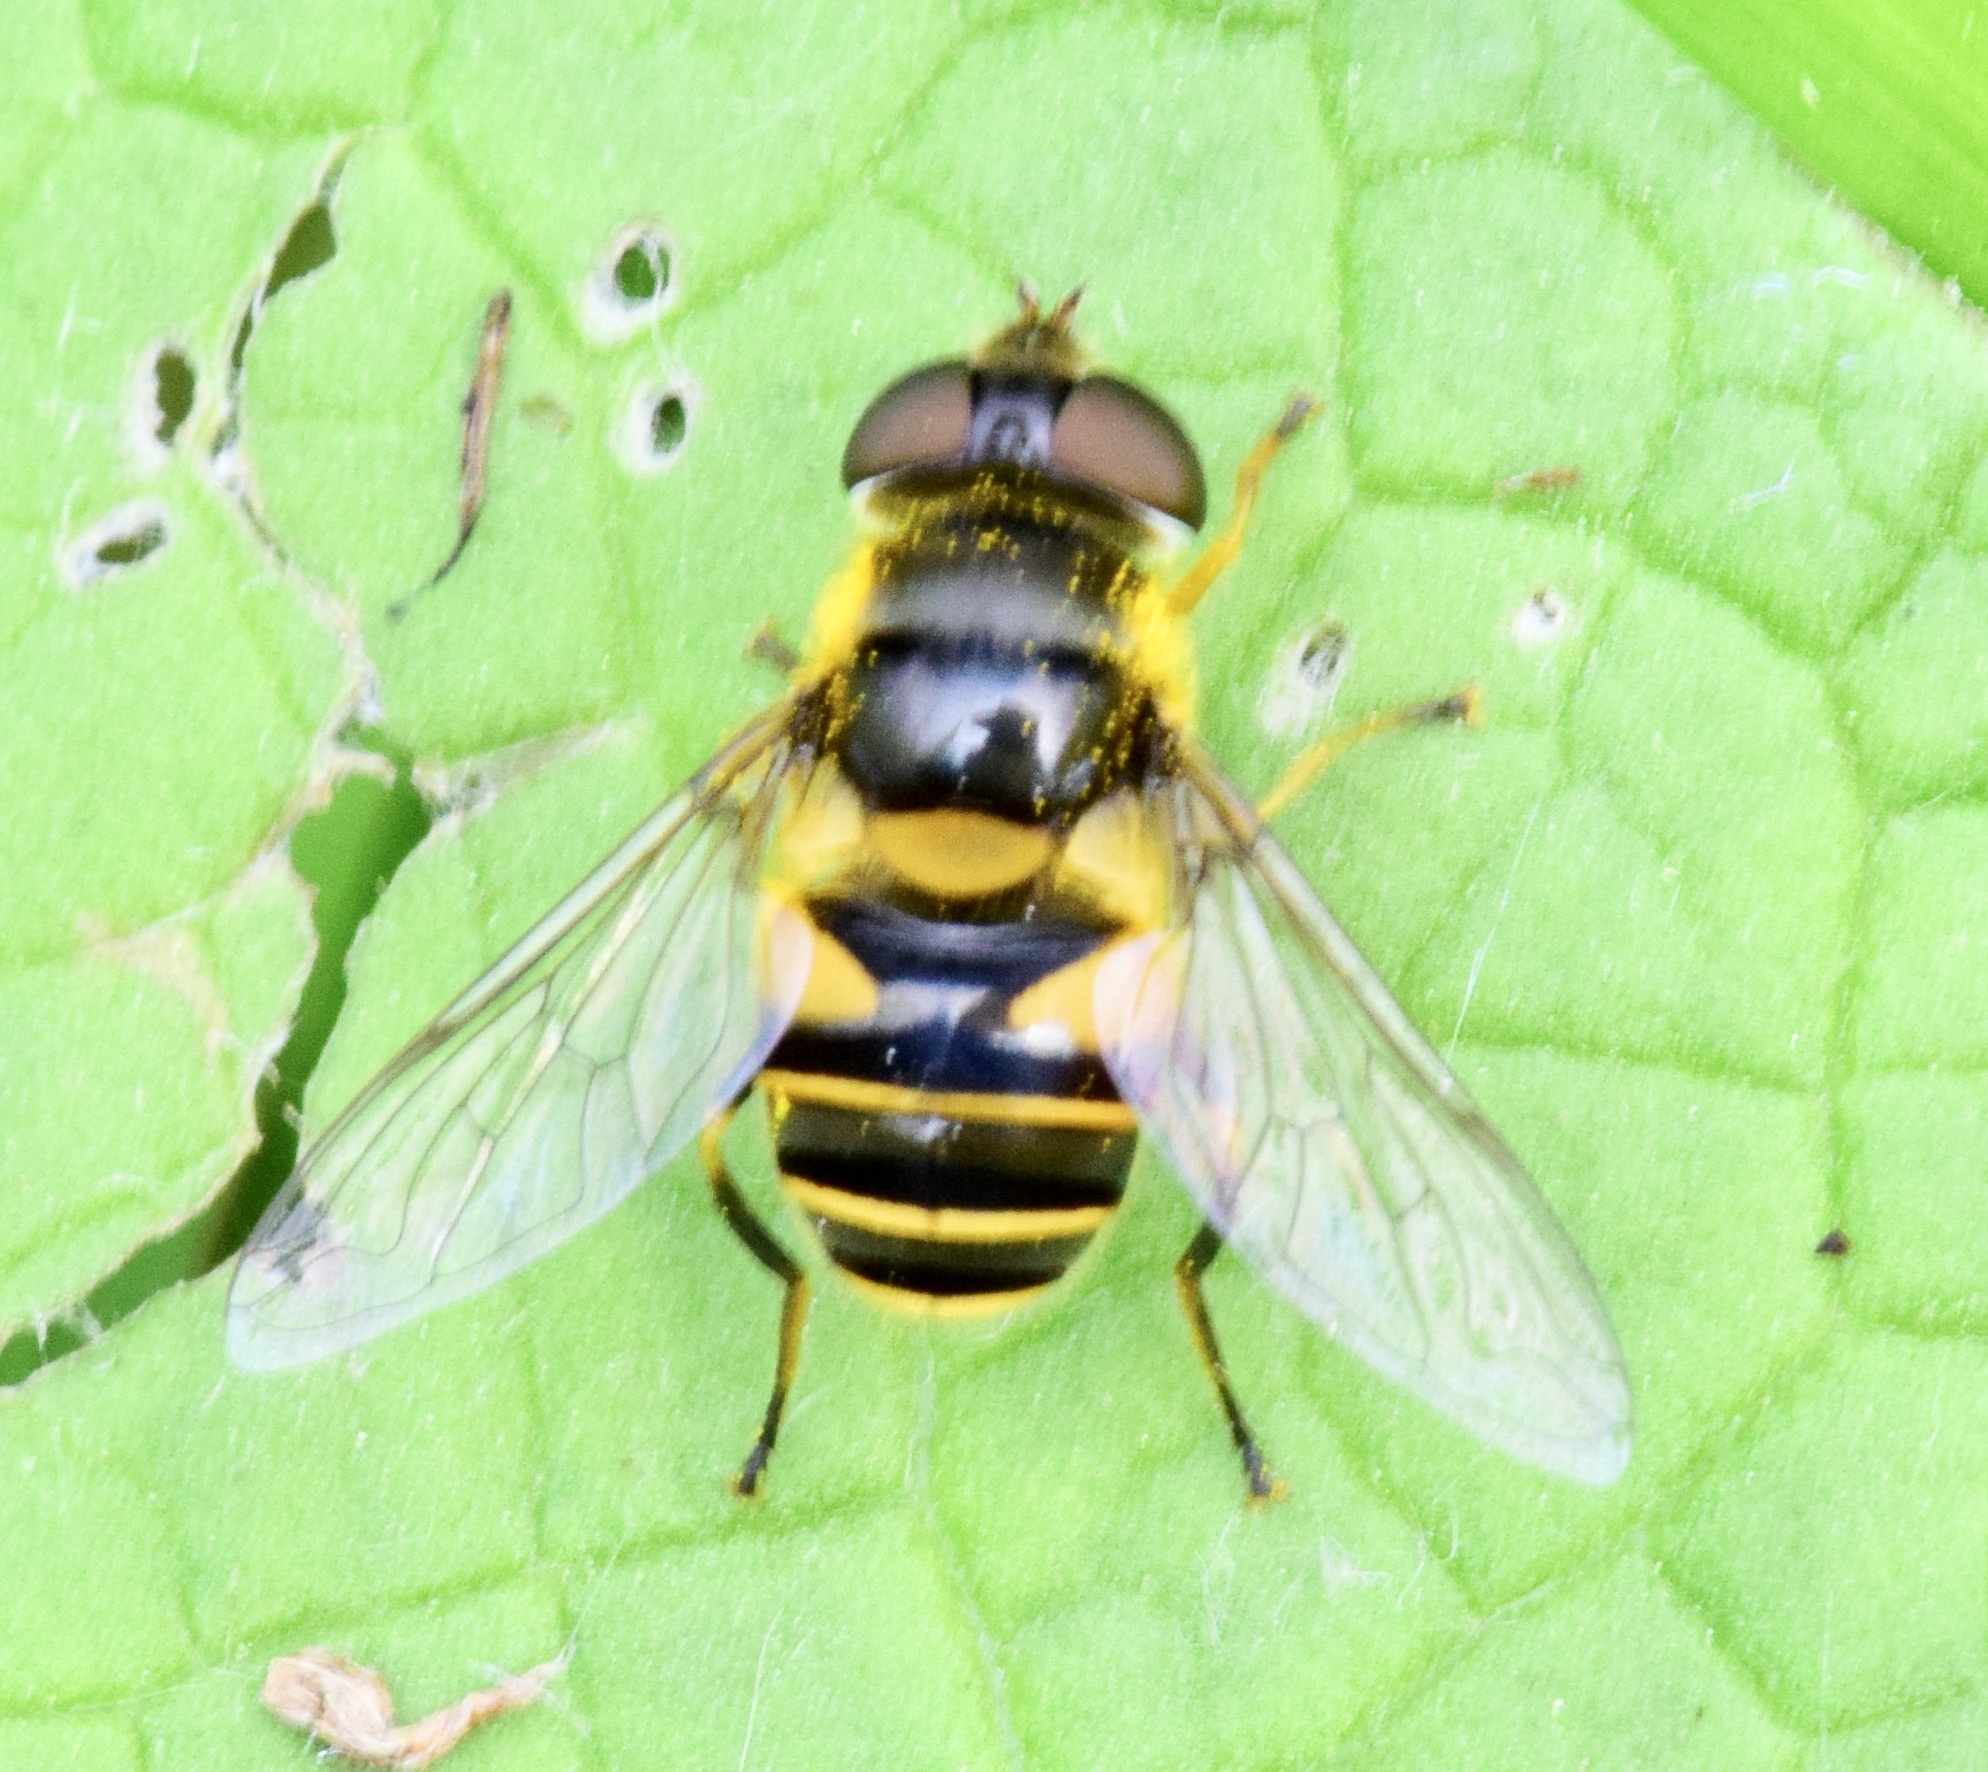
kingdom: Animalia
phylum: Arthropoda
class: Insecta
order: Diptera
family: Syrphidae
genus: Eristalis
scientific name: Eristalis transversa
